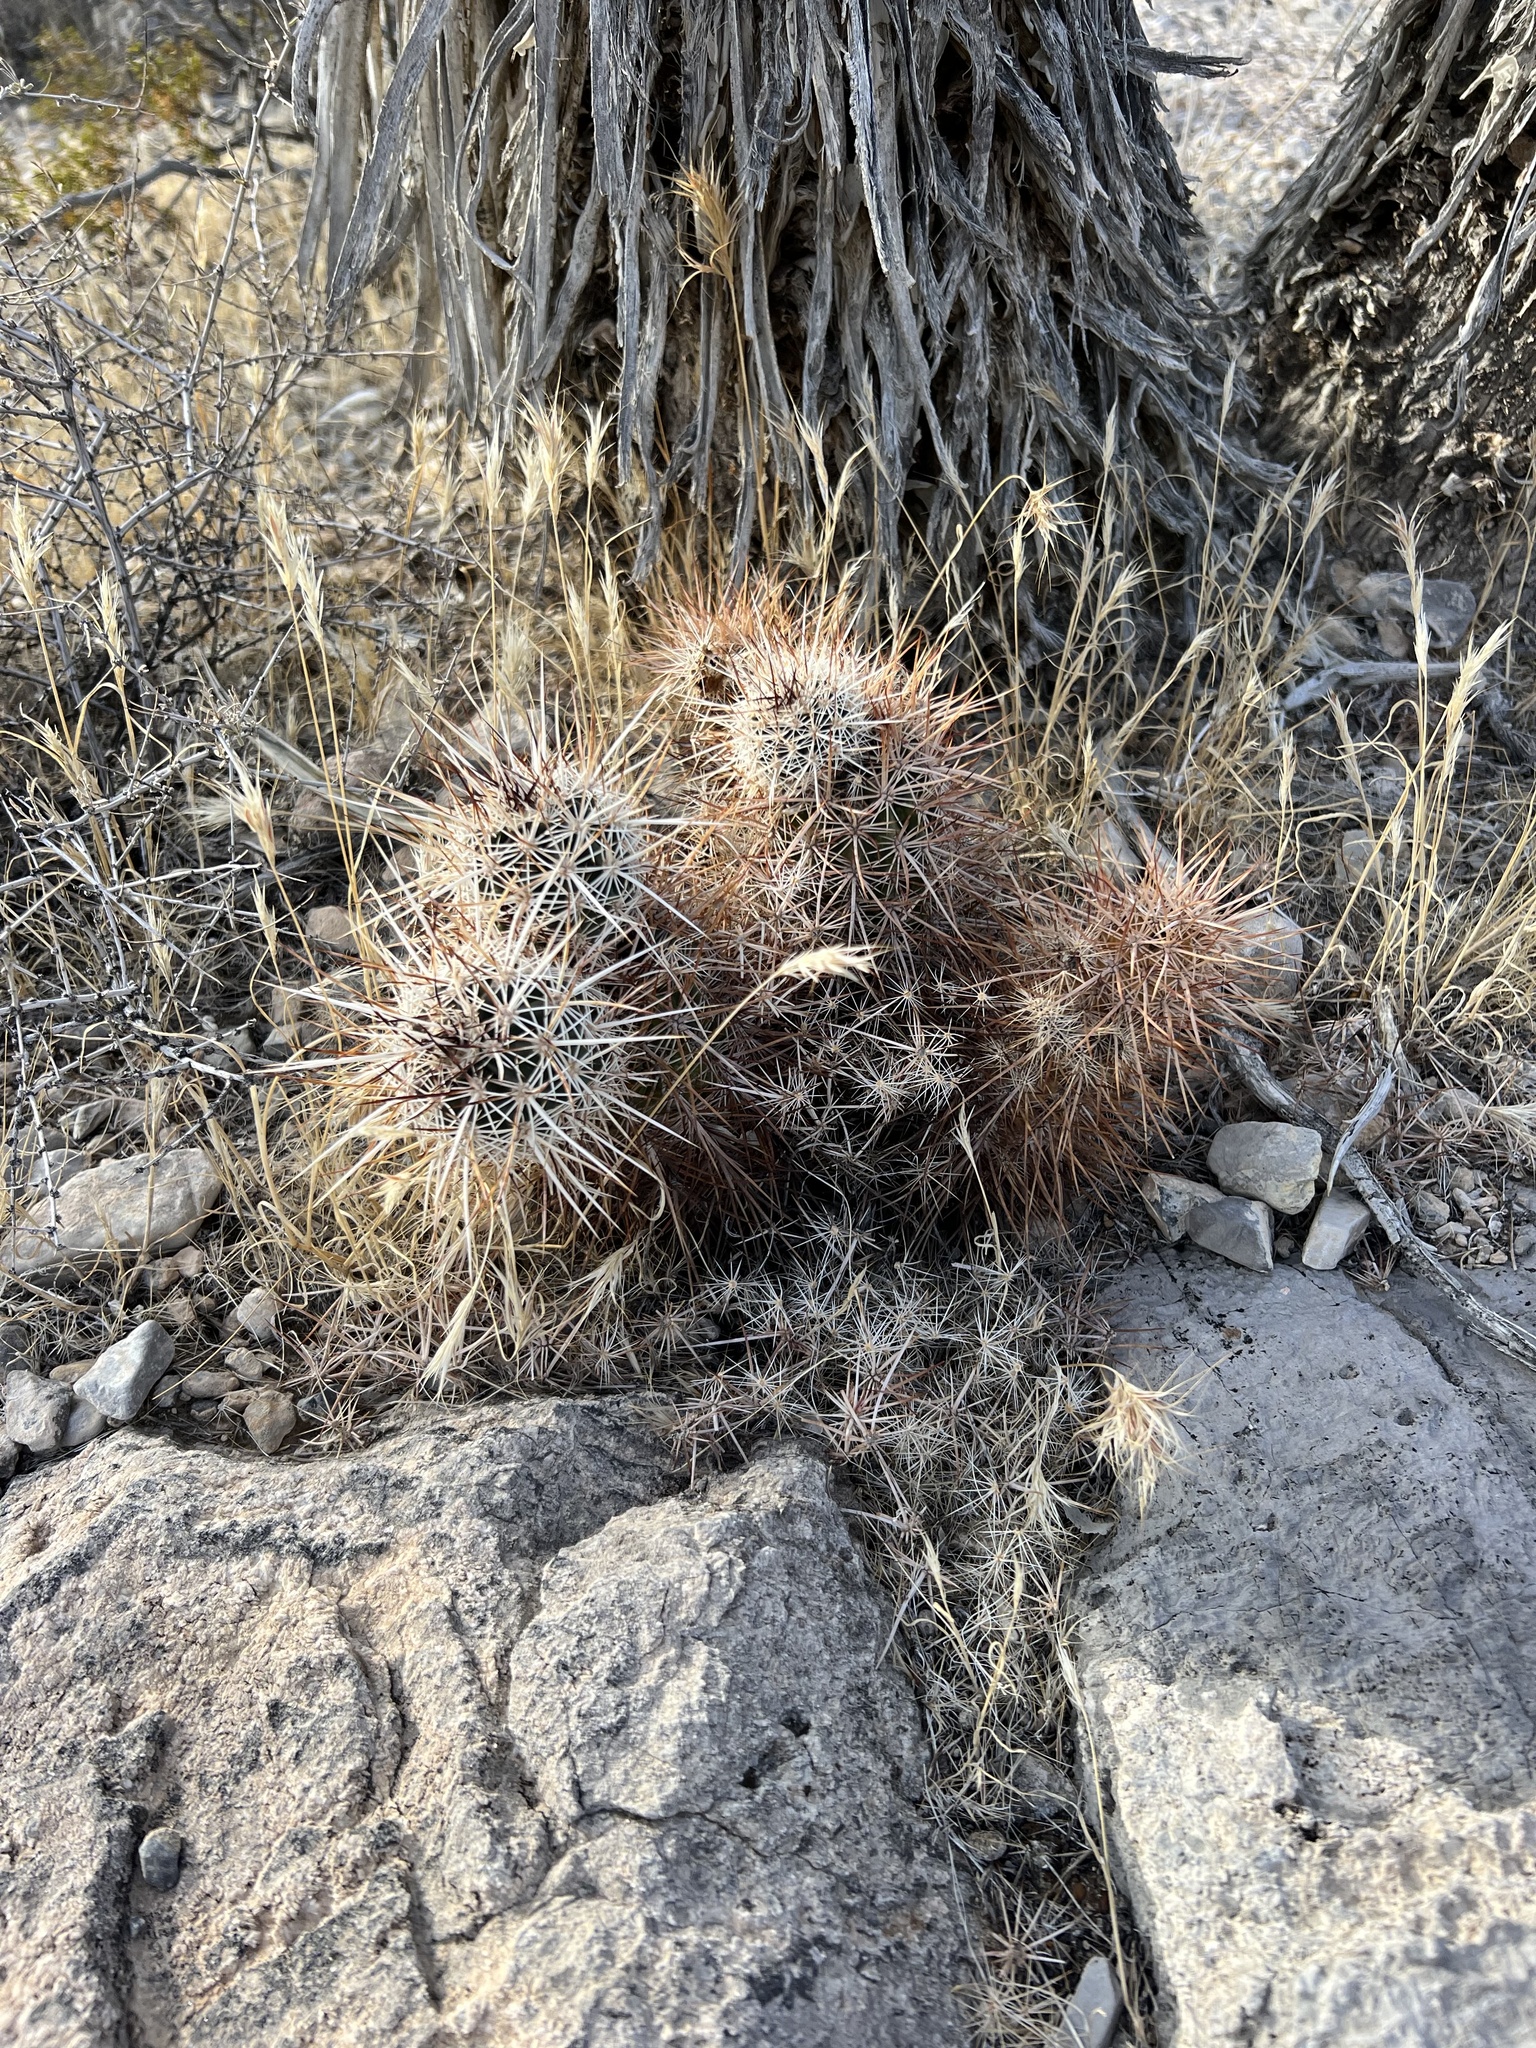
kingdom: Plantae
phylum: Tracheophyta
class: Magnoliopsida
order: Caryophyllales
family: Cactaceae
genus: Echinocereus
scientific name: Echinocereus engelmannii
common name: Engelmann's hedgehog cactus
